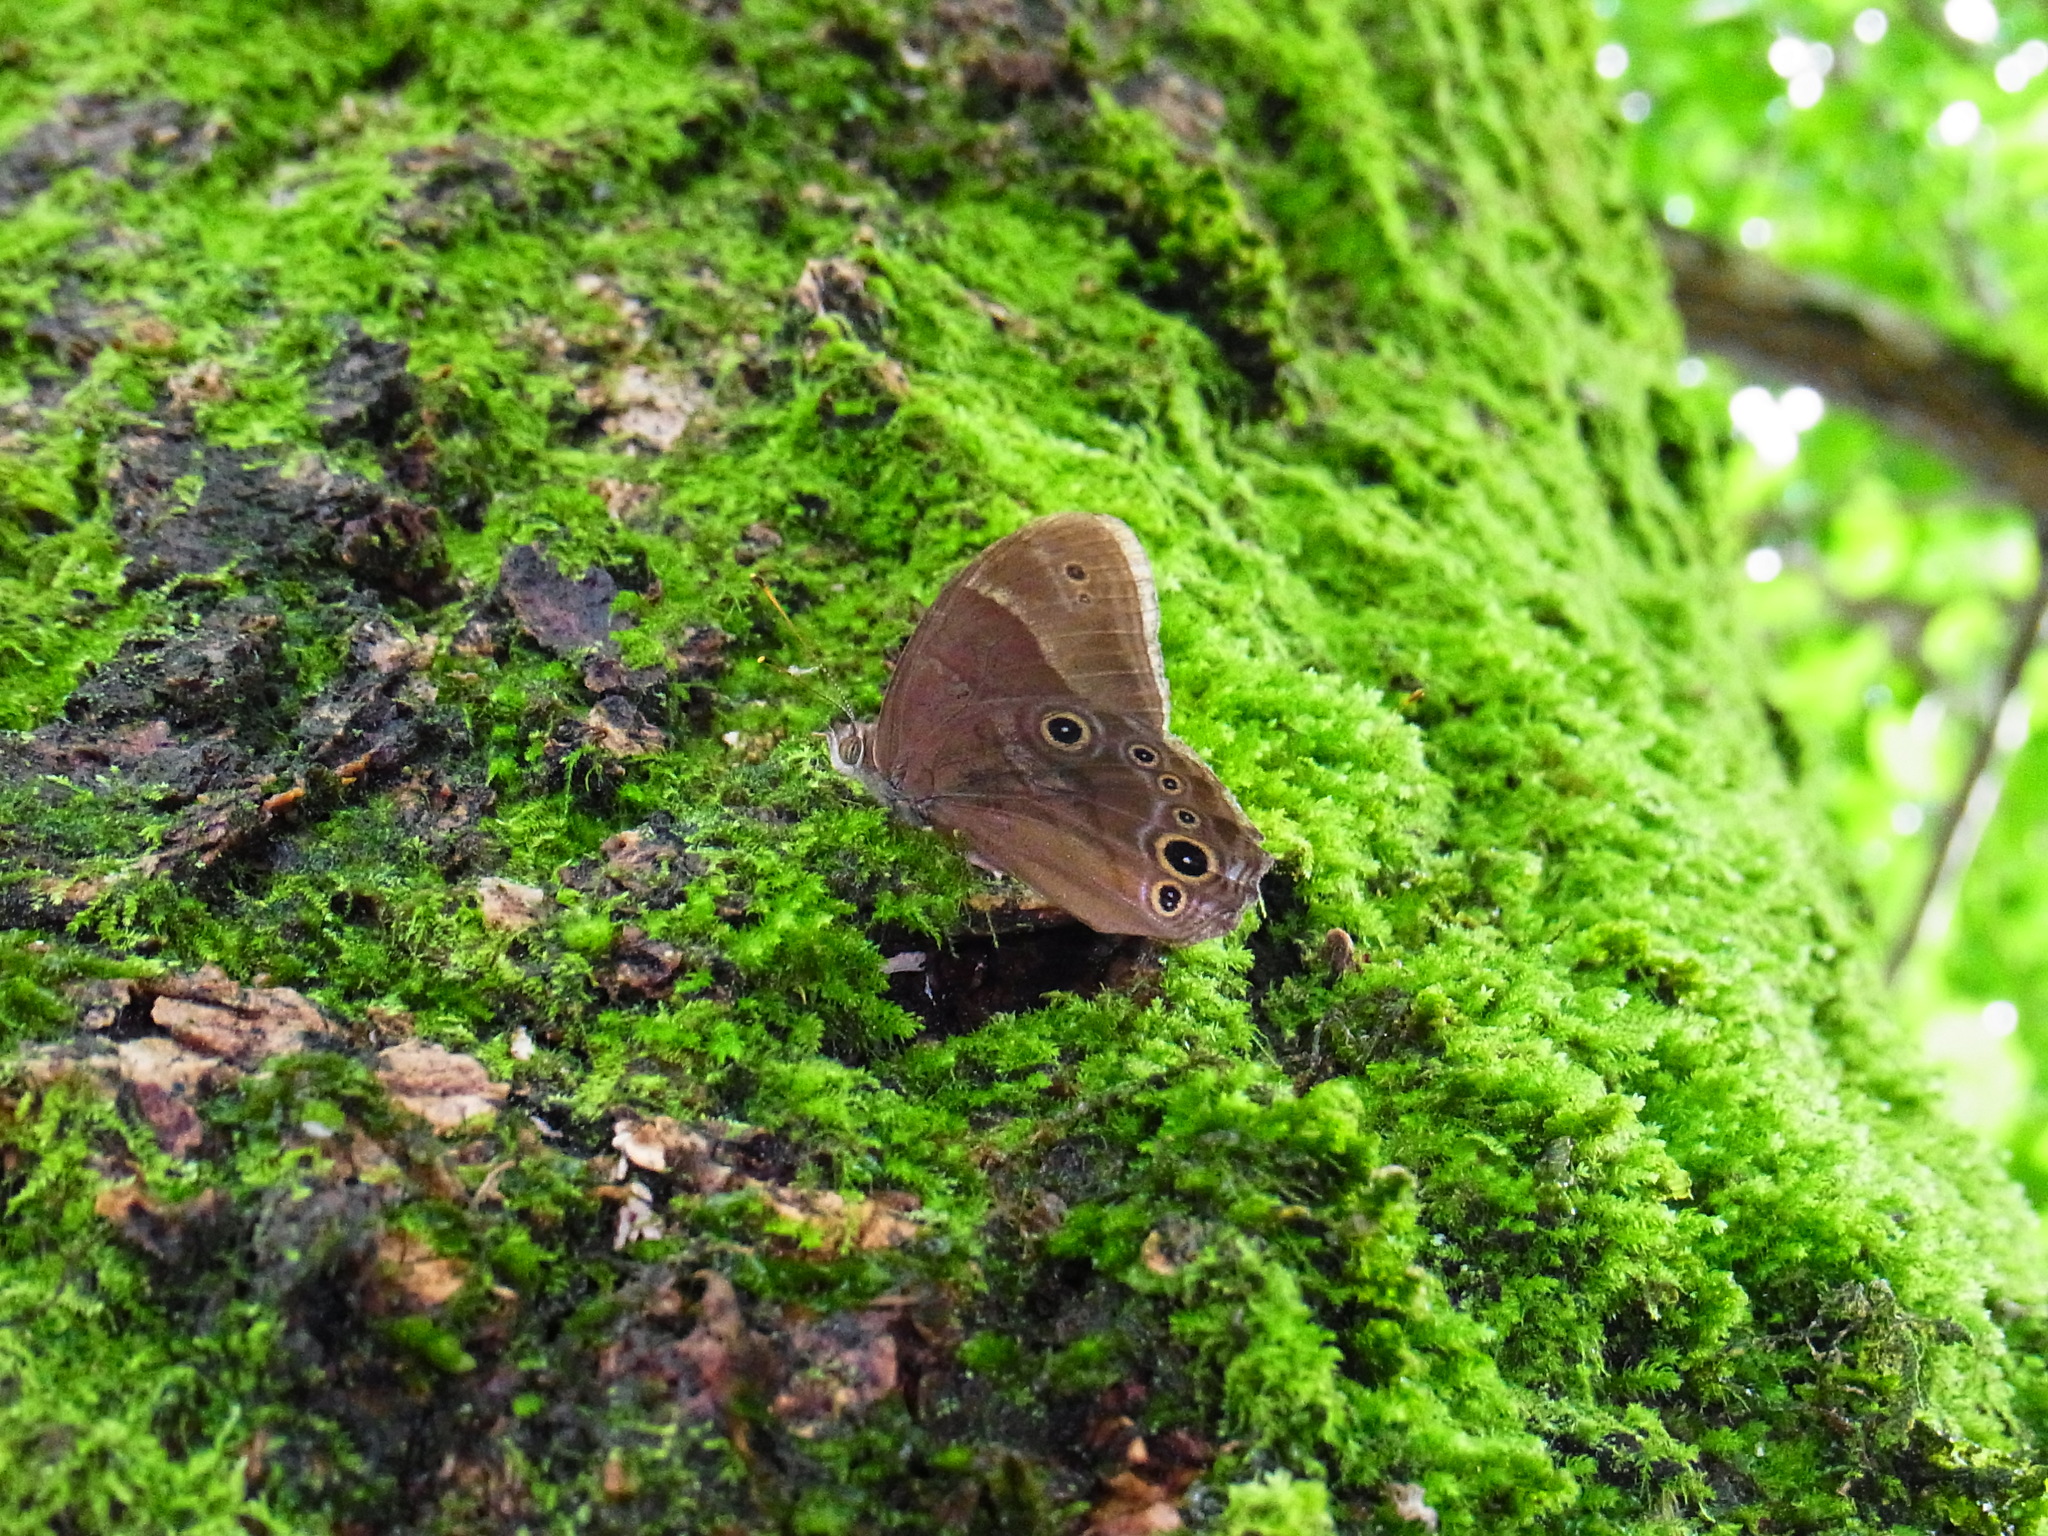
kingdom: Animalia
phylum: Arthropoda
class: Insecta
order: Lepidoptera
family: Nymphalidae
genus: Lethe
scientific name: Lethe sicelis
